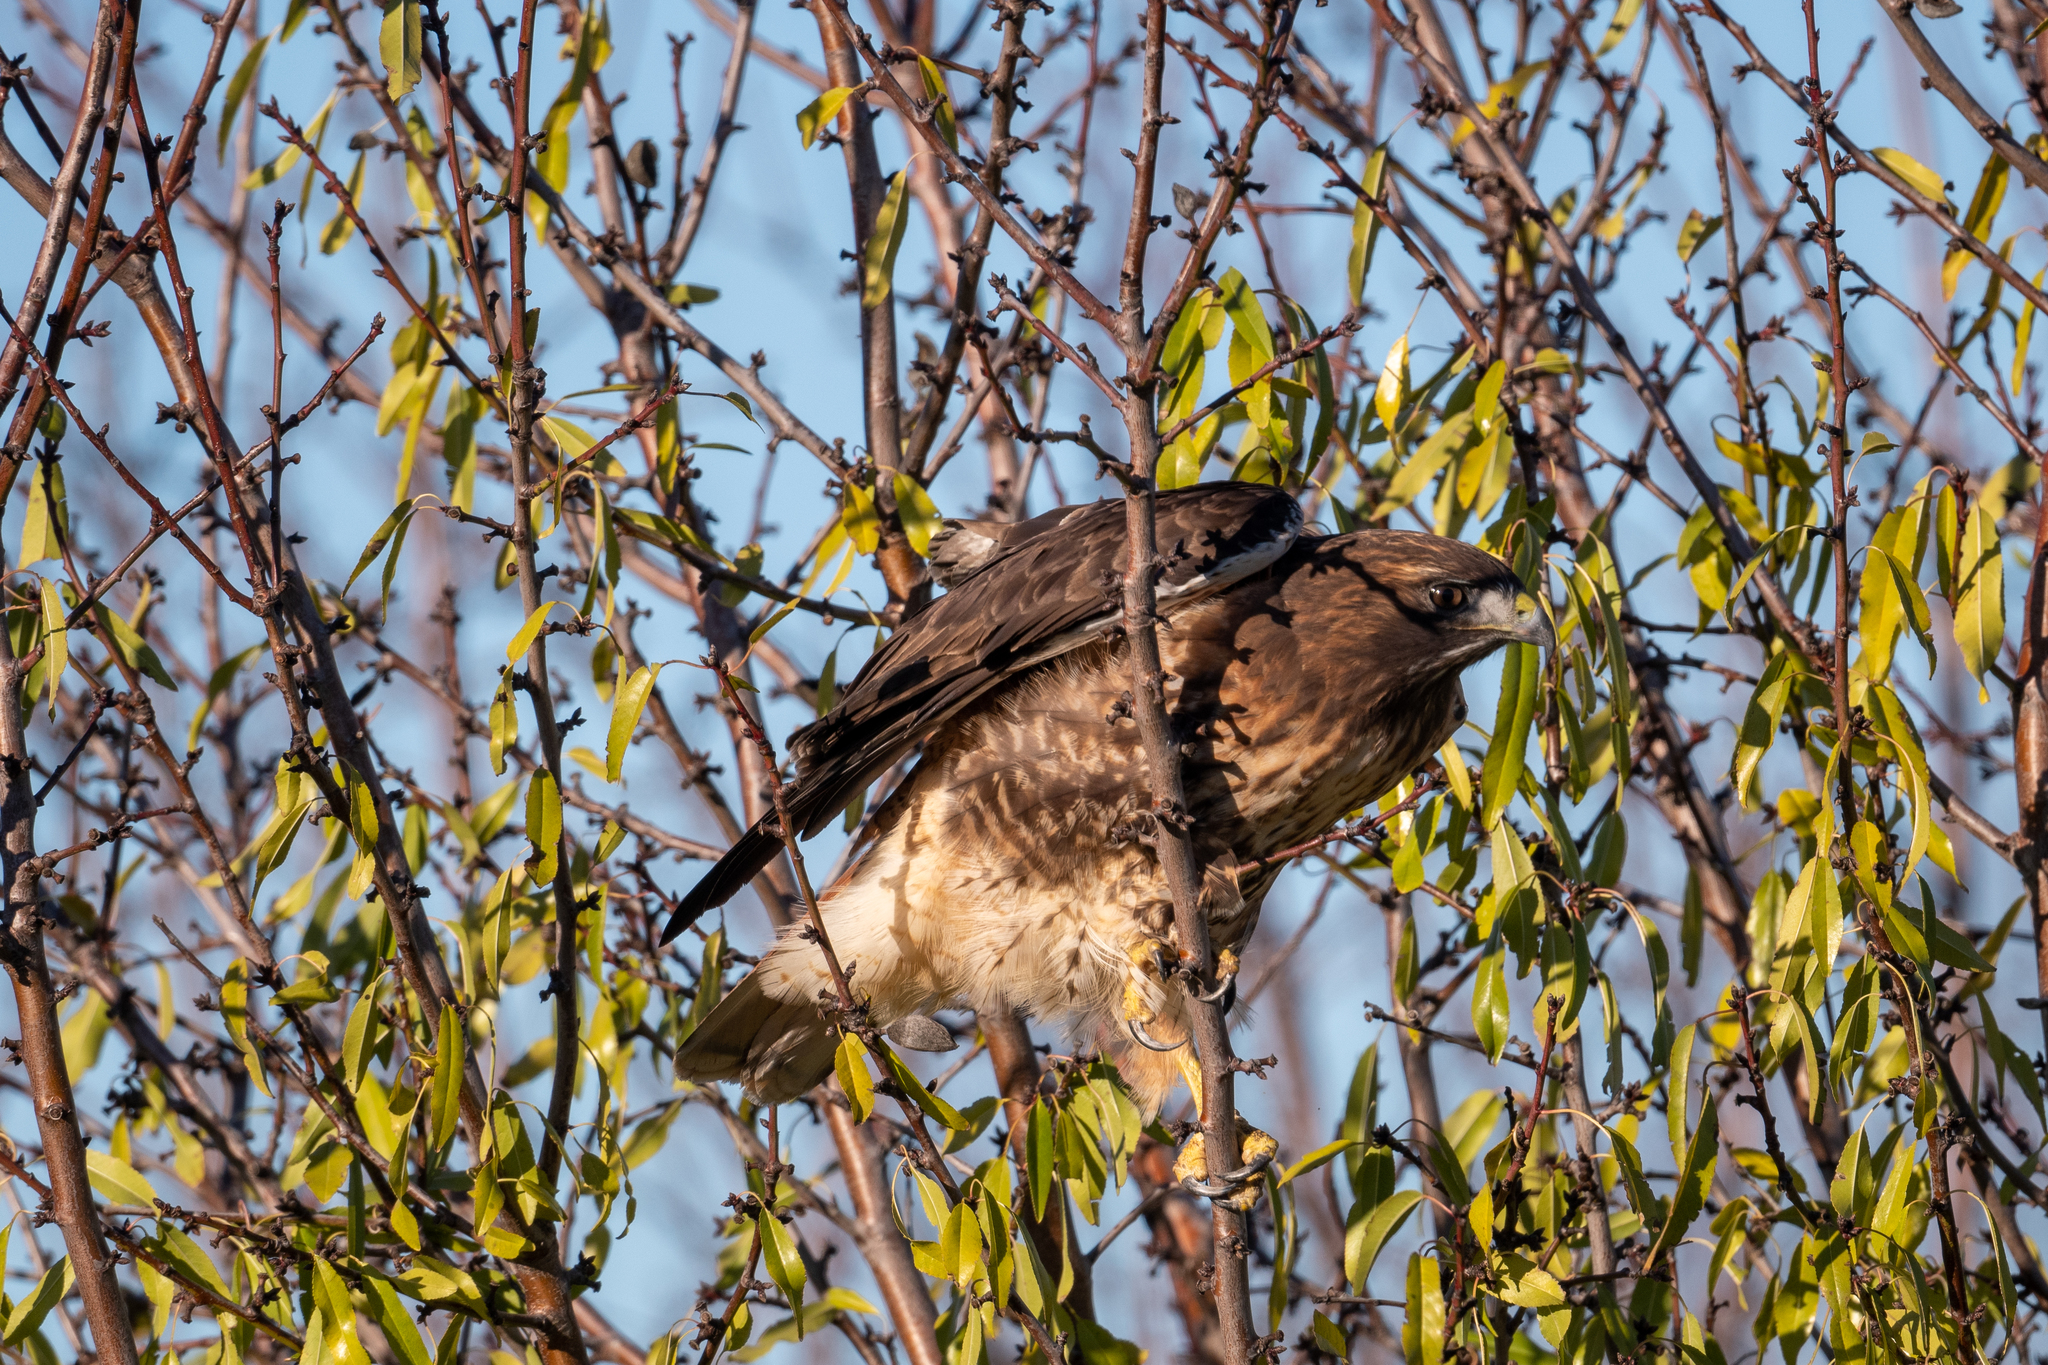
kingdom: Animalia
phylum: Chordata
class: Aves
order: Accipitriformes
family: Accipitridae
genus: Buteo
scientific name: Buteo jamaicensis
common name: Red-tailed hawk
